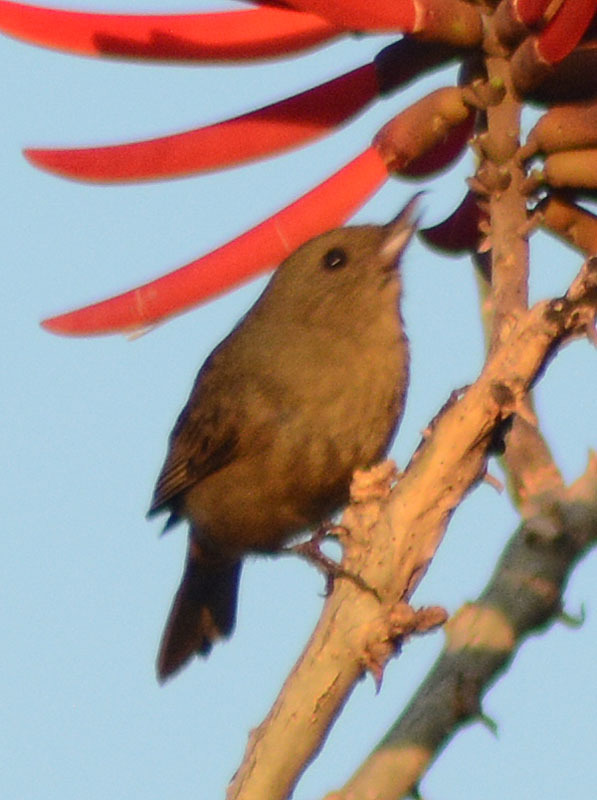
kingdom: Animalia
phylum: Chordata
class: Aves
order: Passeriformes
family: Thraupidae
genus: Diglossa
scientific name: Diglossa baritula
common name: Cinnamon-bellied flowerpiercer
